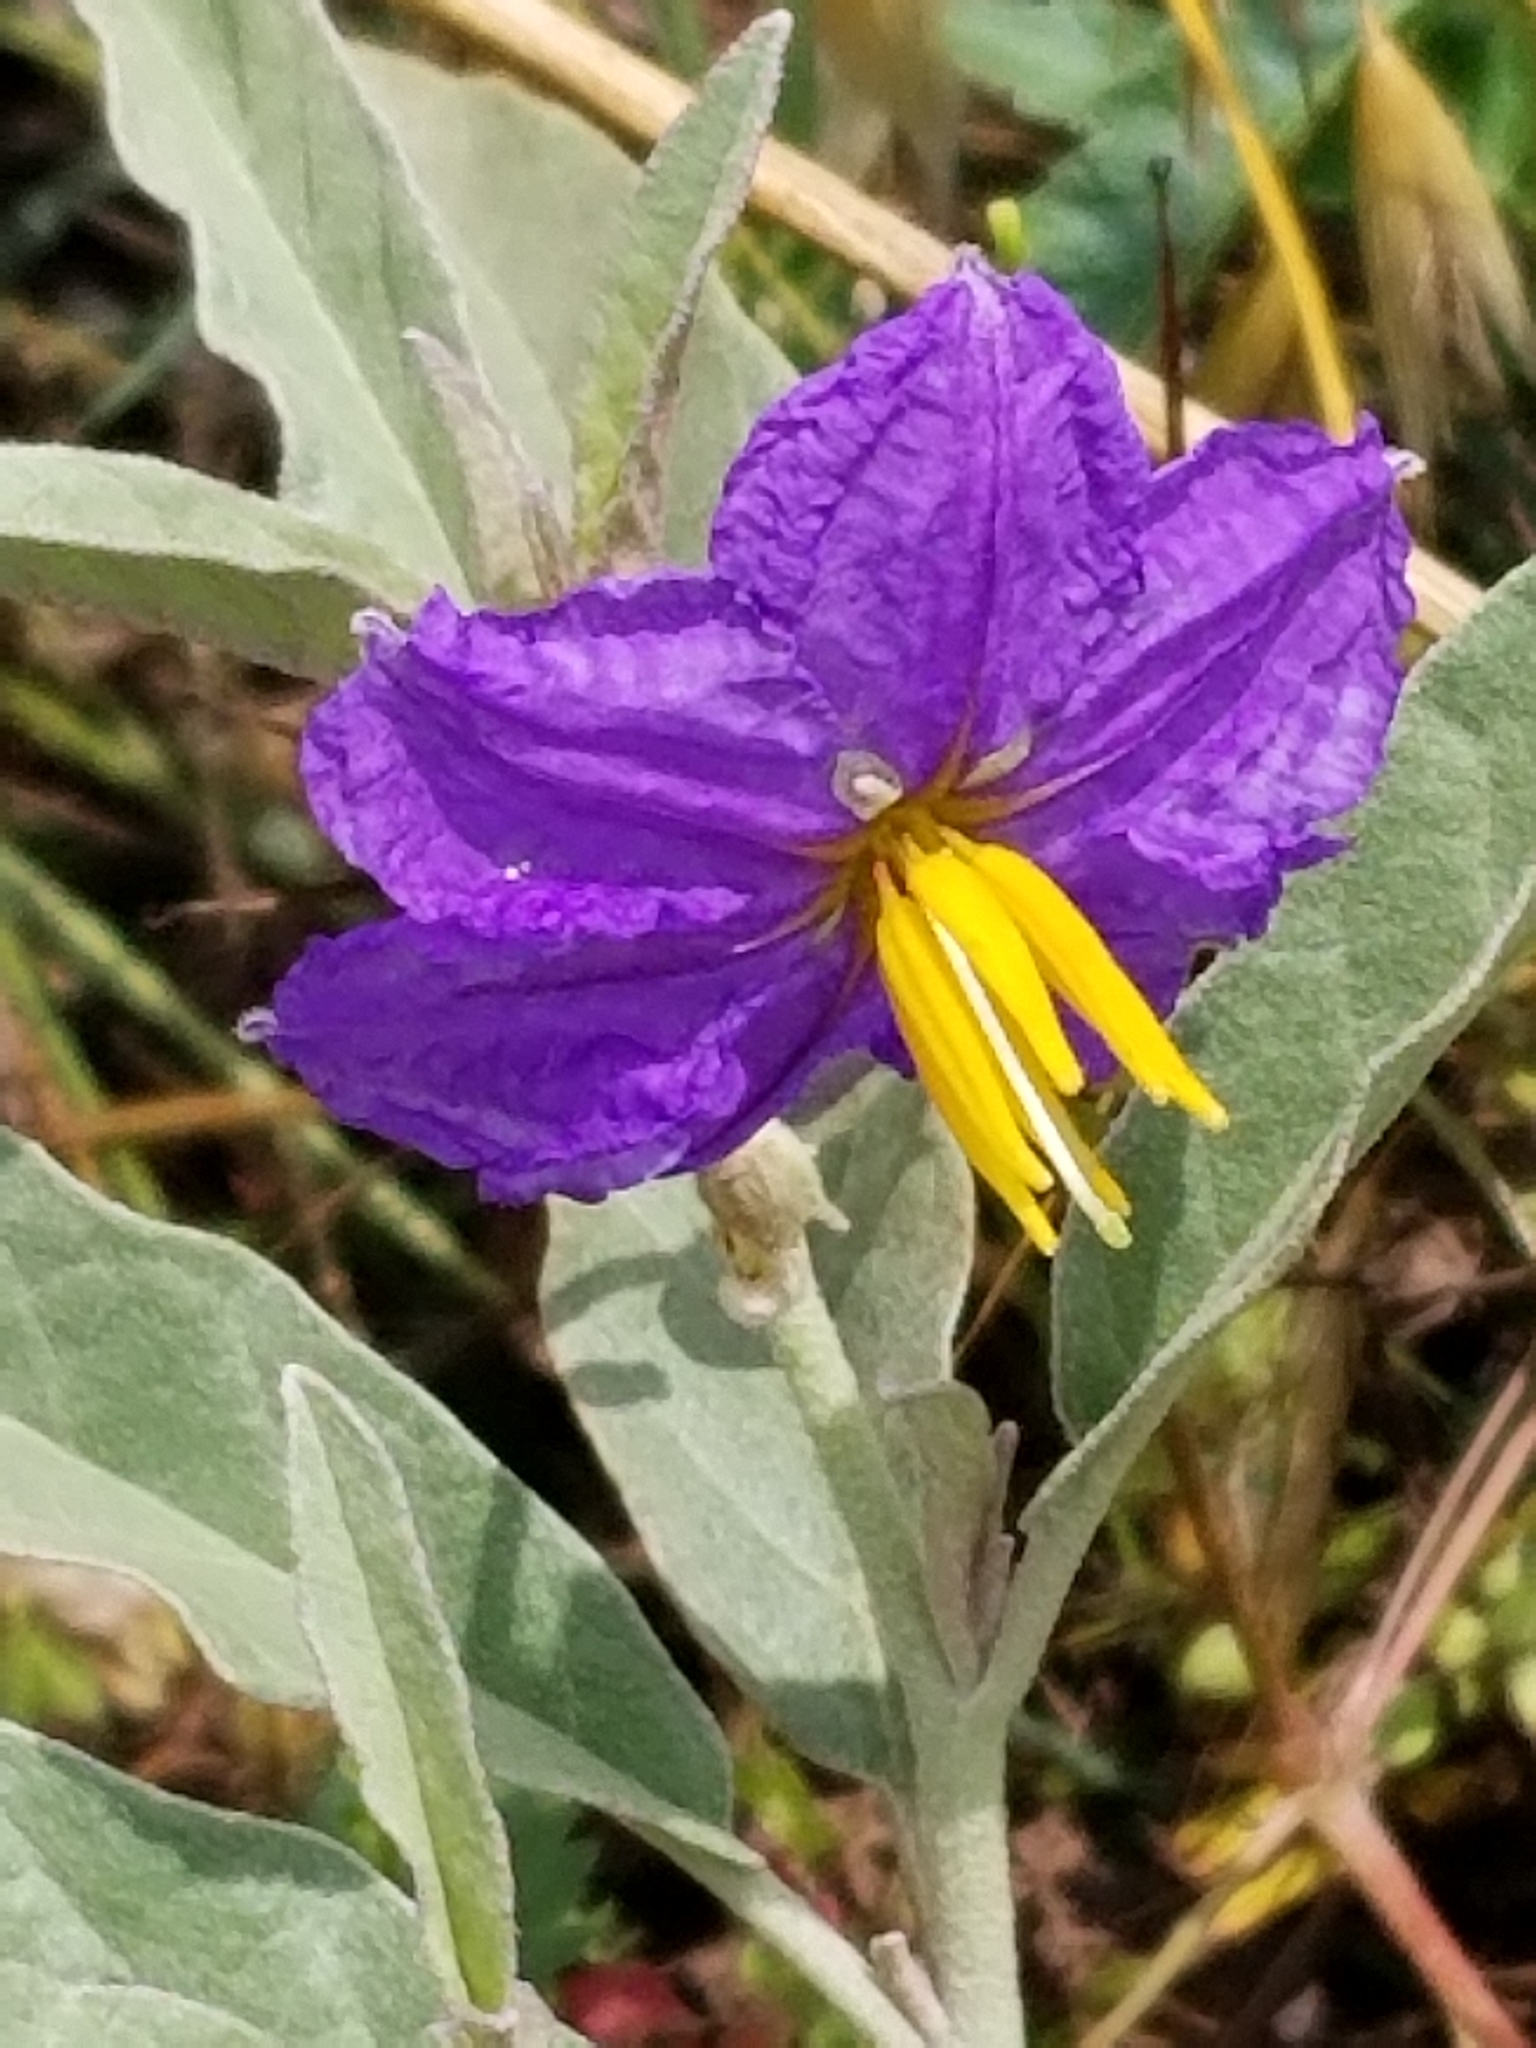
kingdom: Plantae
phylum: Tracheophyta
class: Magnoliopsida
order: Solanales
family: Solanaceae
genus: Solanum
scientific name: Solanum elaeagnifolium
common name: Silverleaf nightshade
